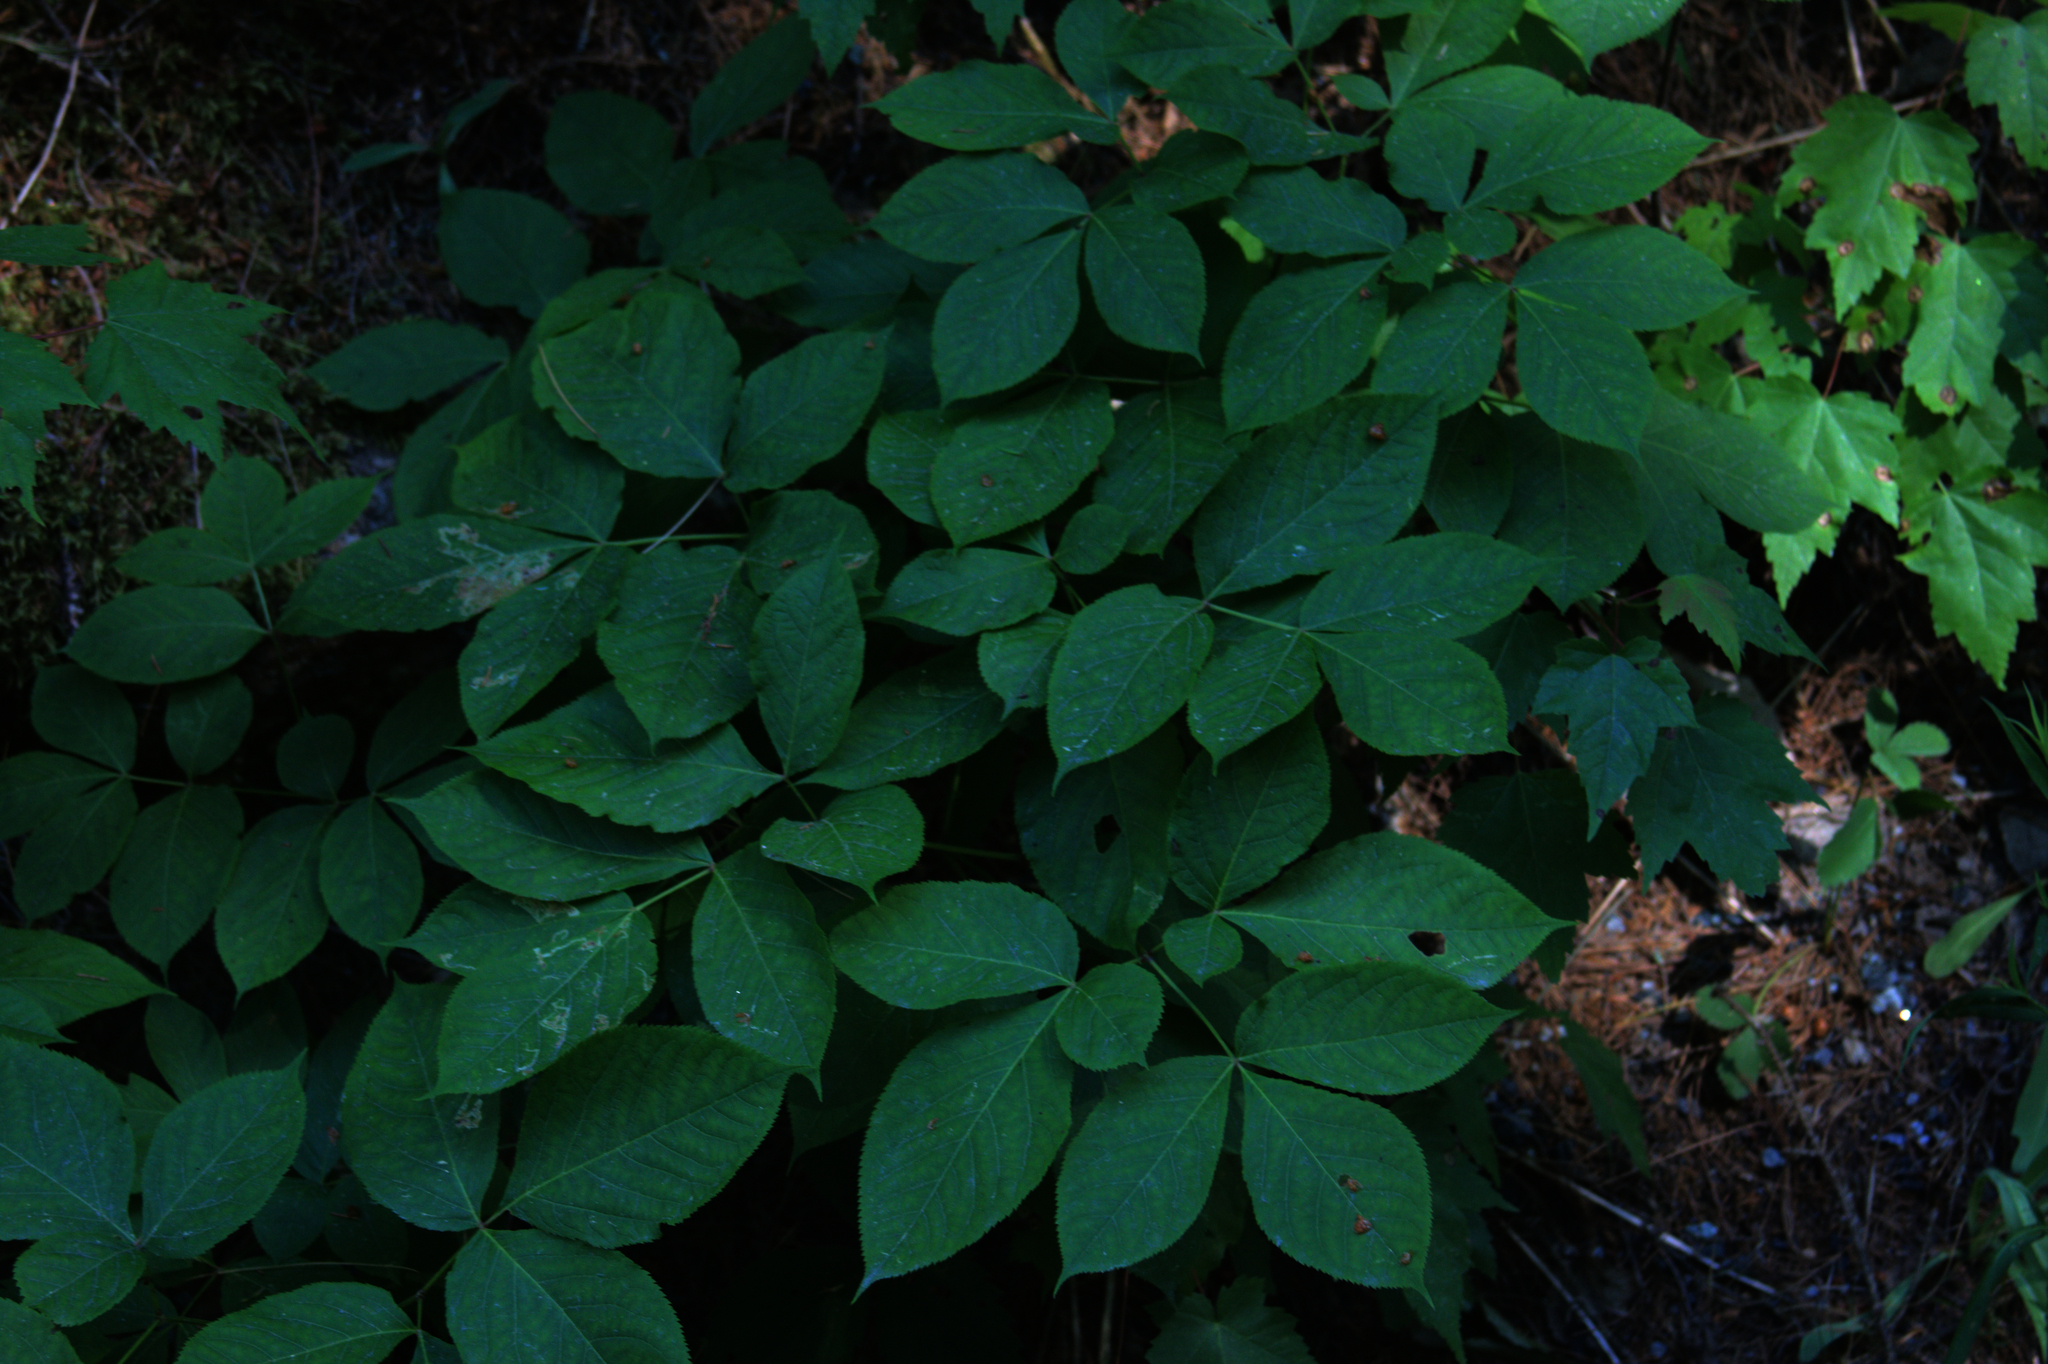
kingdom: Plantae
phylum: Tracheophyta
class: Magnoliopsida
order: Apiales
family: Araliaceae
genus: Aralia
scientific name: Aralia nudicaulis
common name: Wild sarsaparilla
